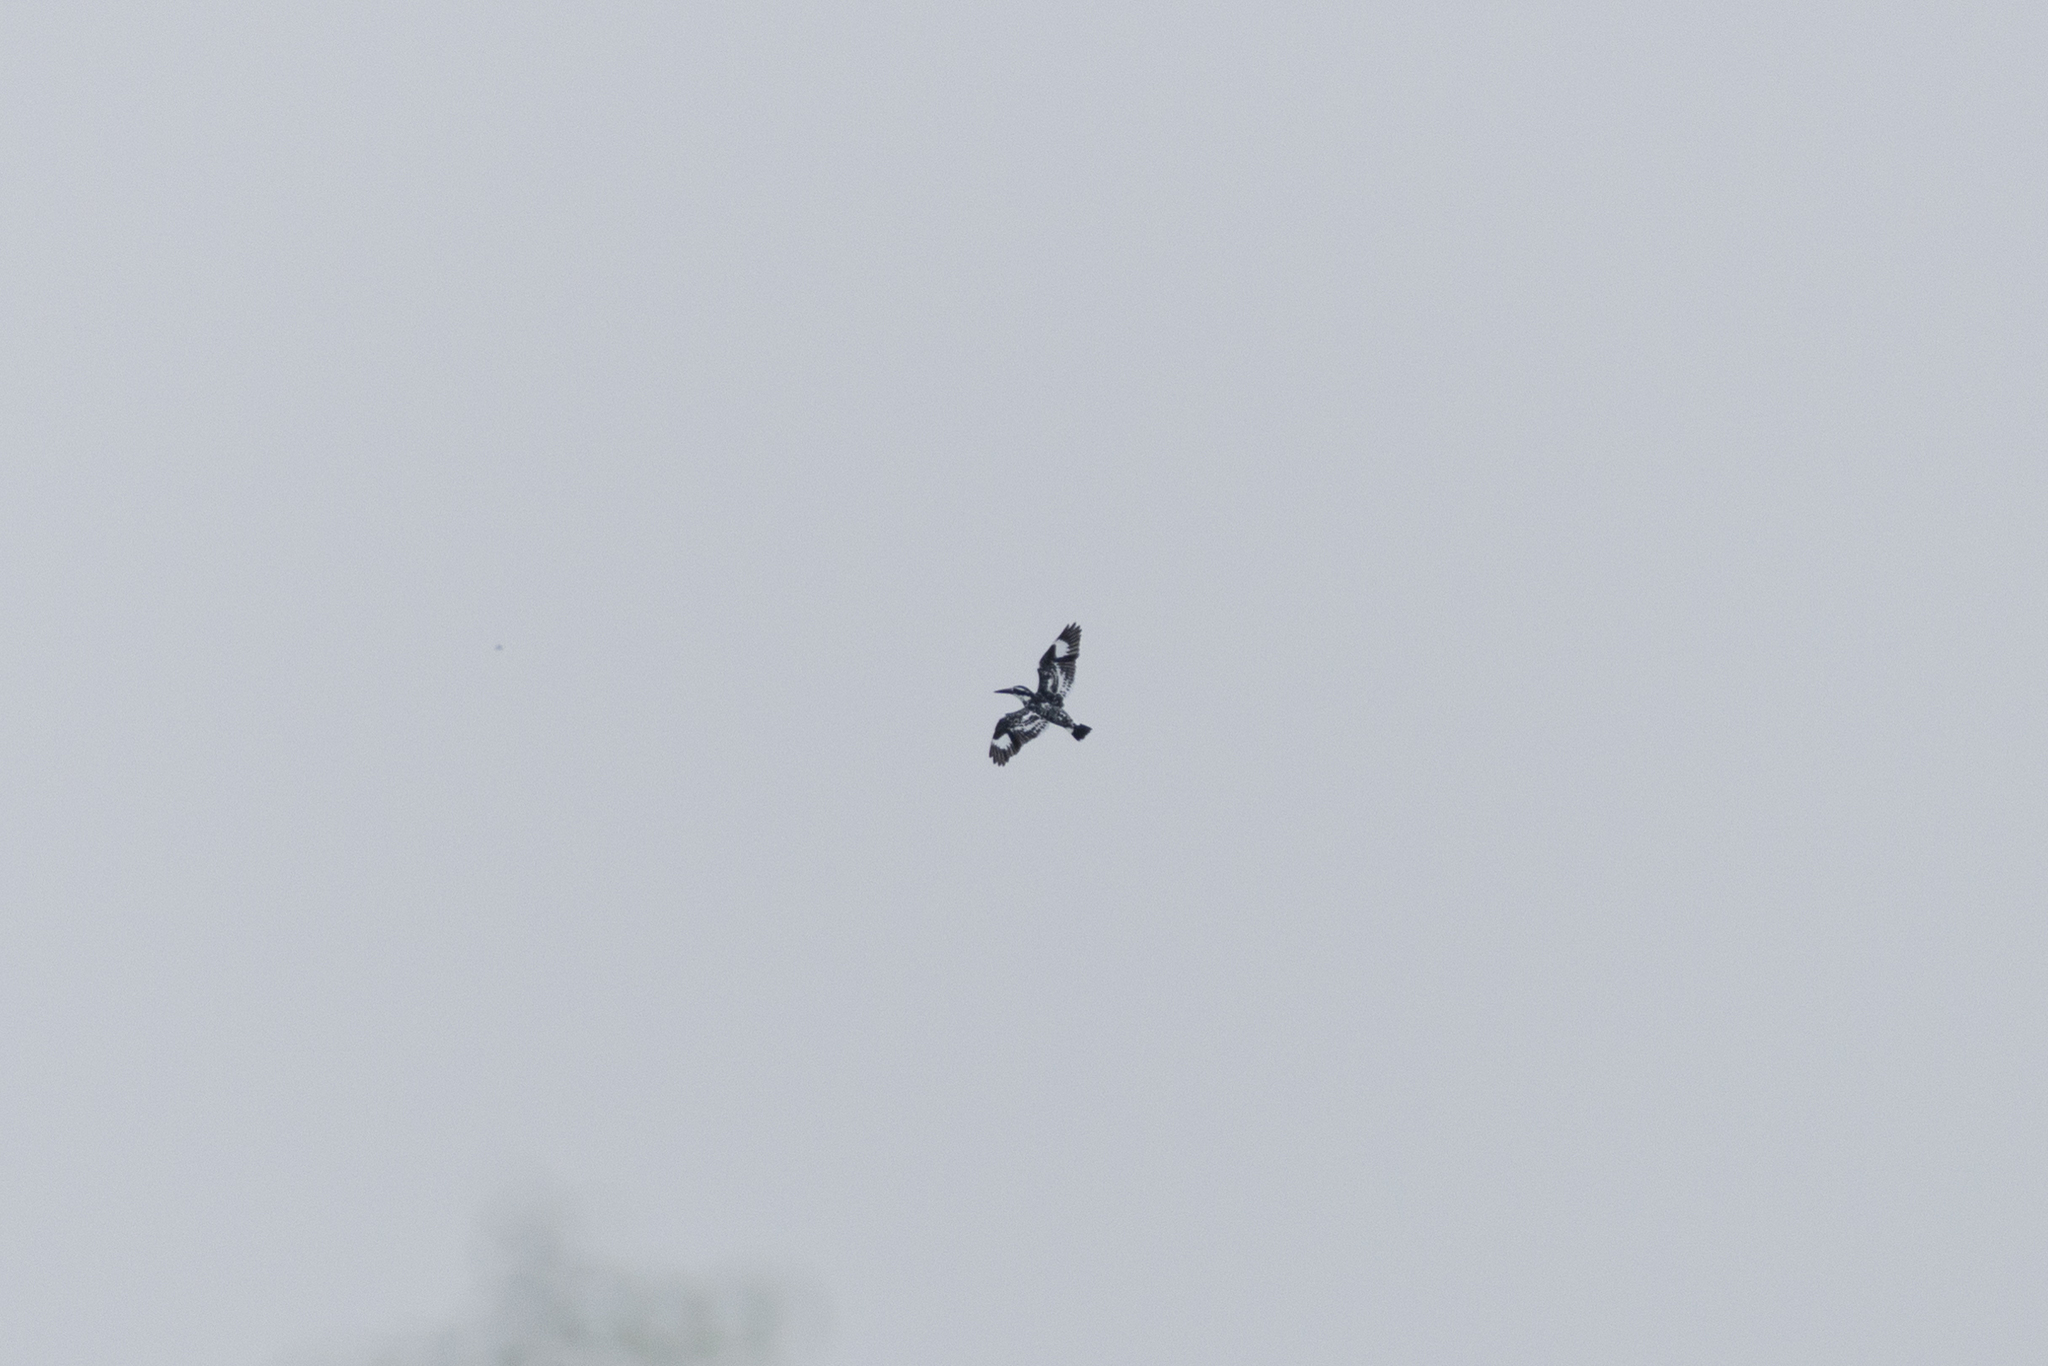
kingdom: Animalia
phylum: Chordata
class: Aves
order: Coraciiformes
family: Alcedinidae
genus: Ceryle
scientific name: Ceryle rudis
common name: Pied kingfisher
